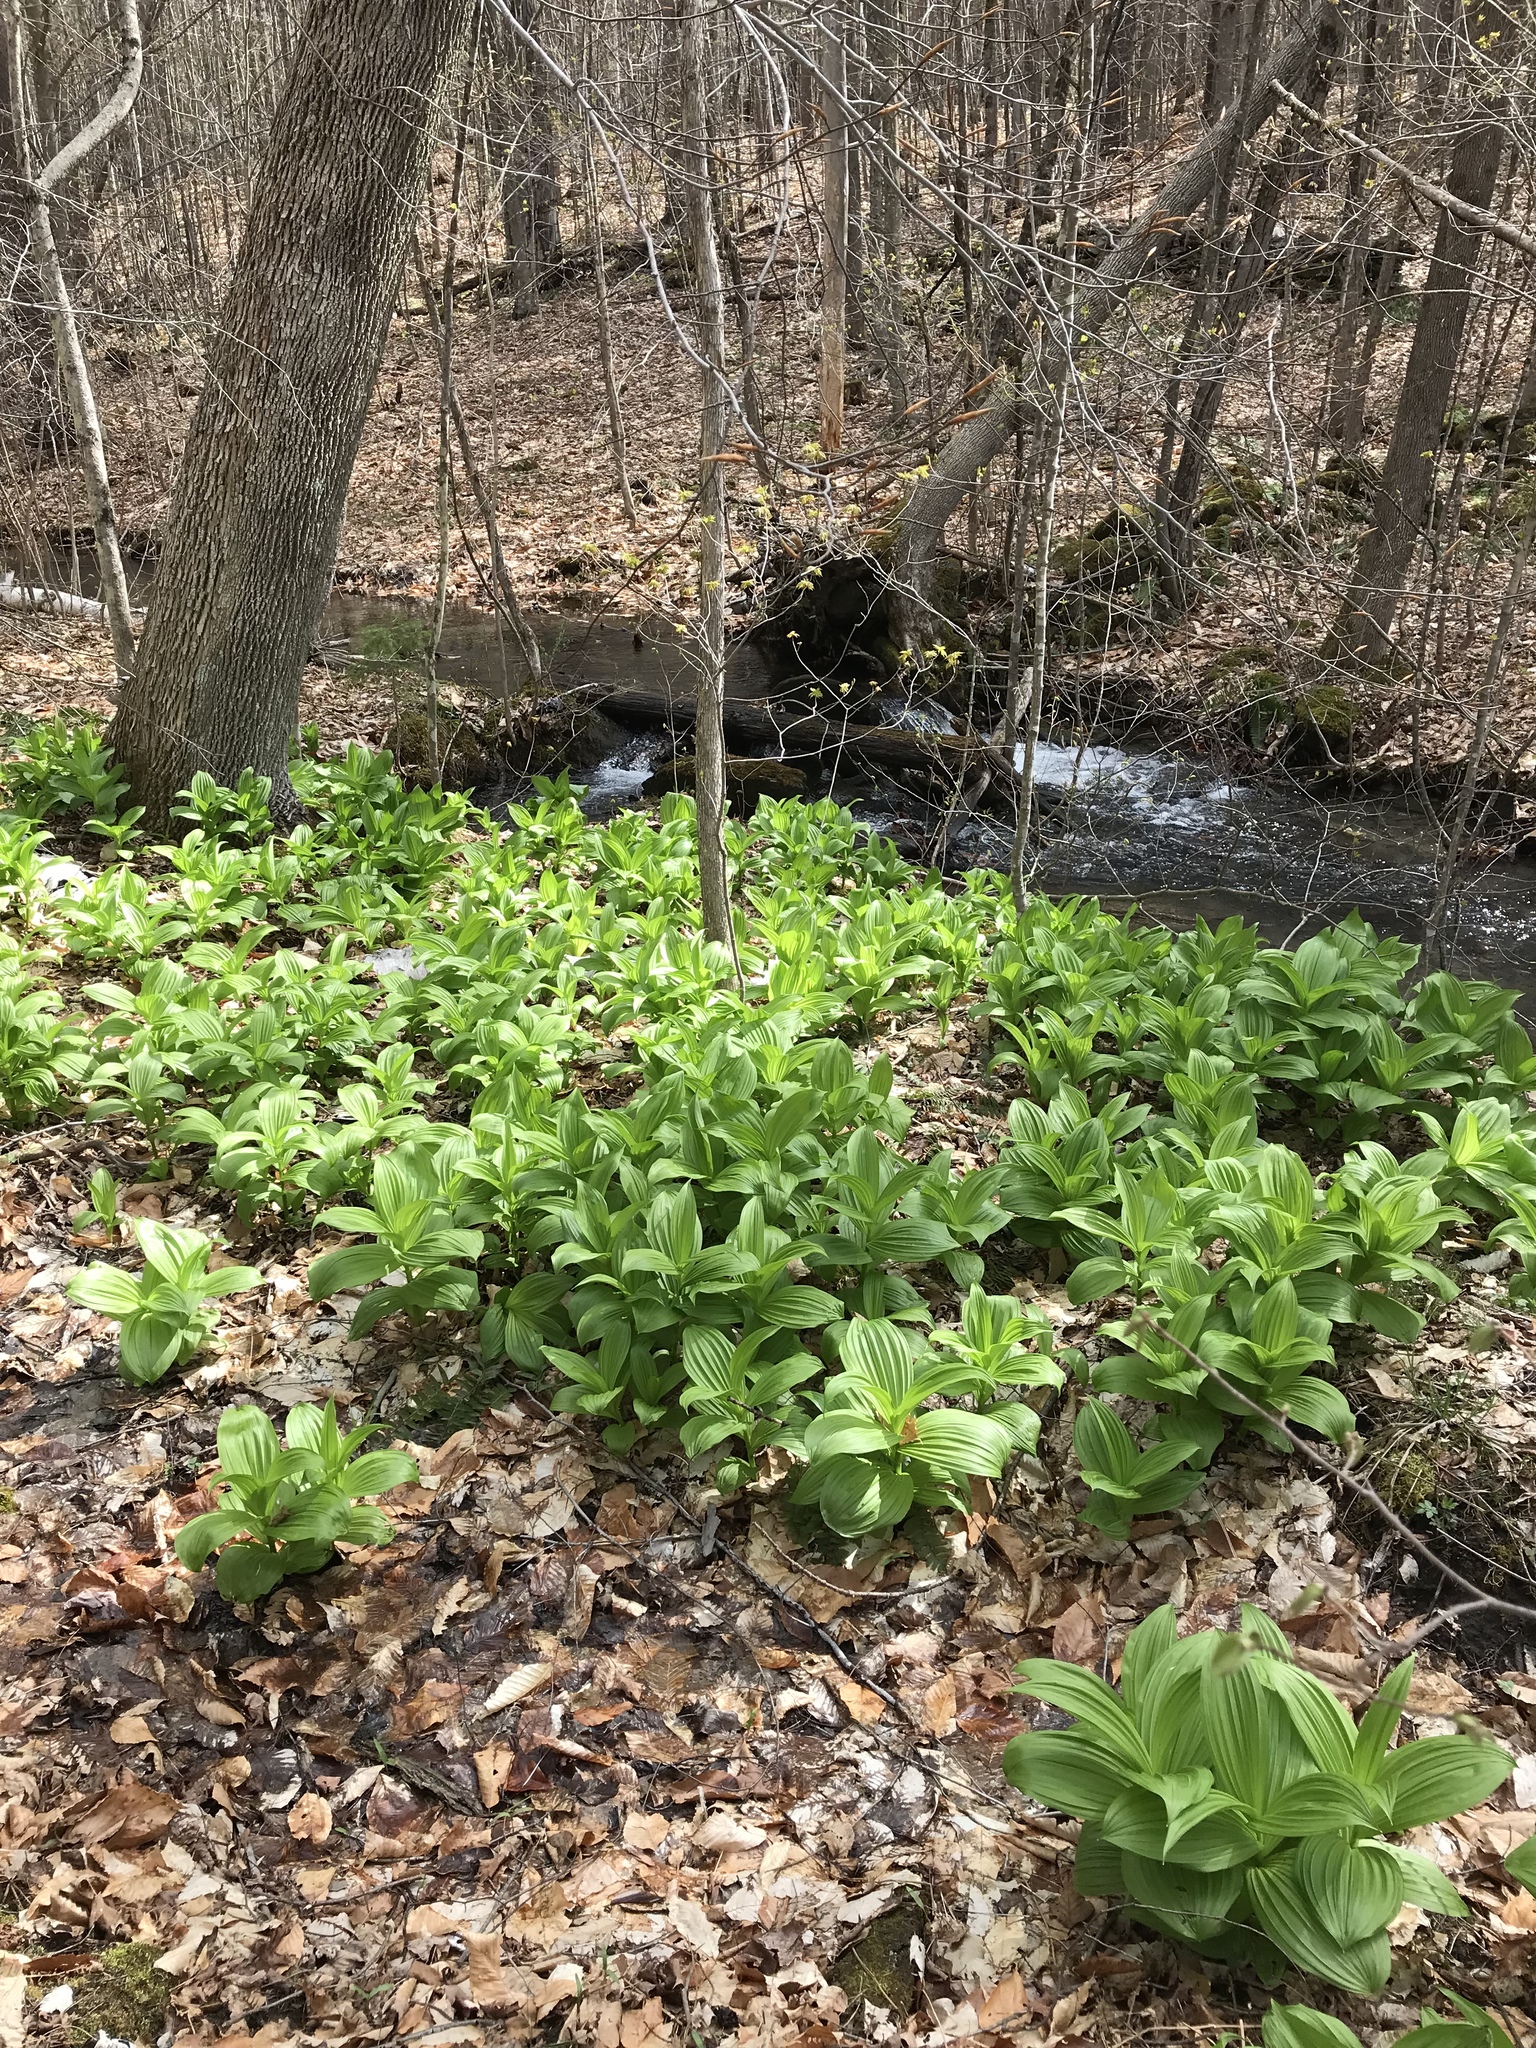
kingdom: Plantae
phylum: Tracheophyta
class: Liliopsida
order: Liliales
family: Melanthiaceae
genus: Veratrum
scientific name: Veratrum viride
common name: American false hellebore
